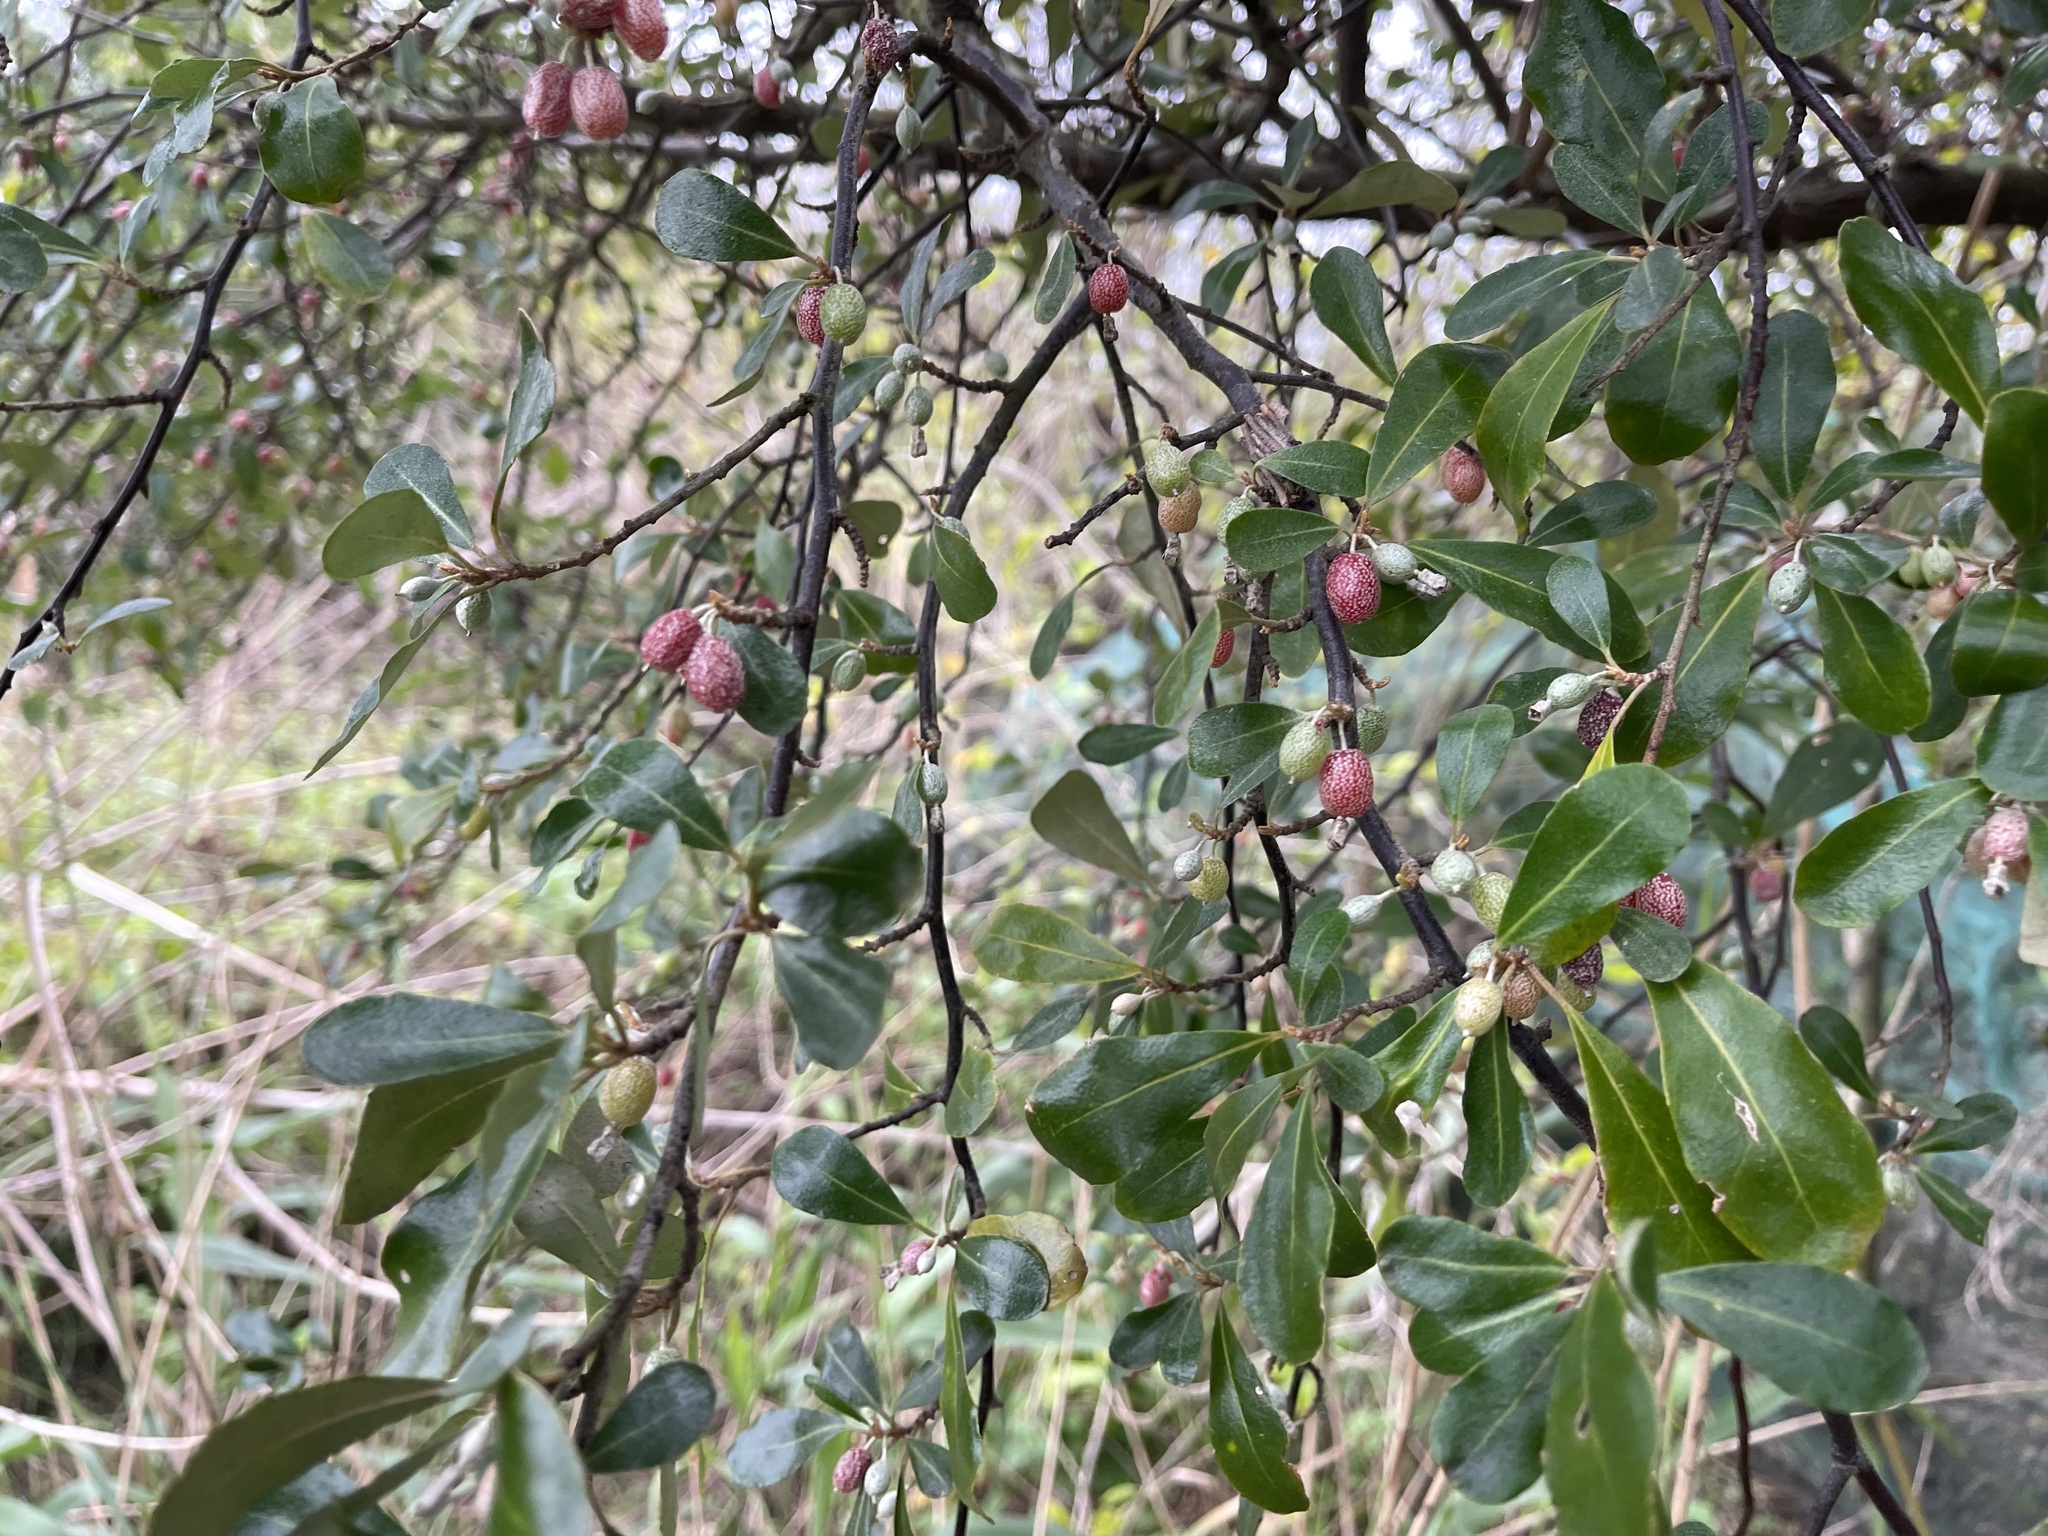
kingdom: Plantae
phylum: Tracheophyta
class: Magnoliopsida
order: Rosales
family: Elaeagnaceae
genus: Elaeagnus
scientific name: Elaeagnus oldhamii
